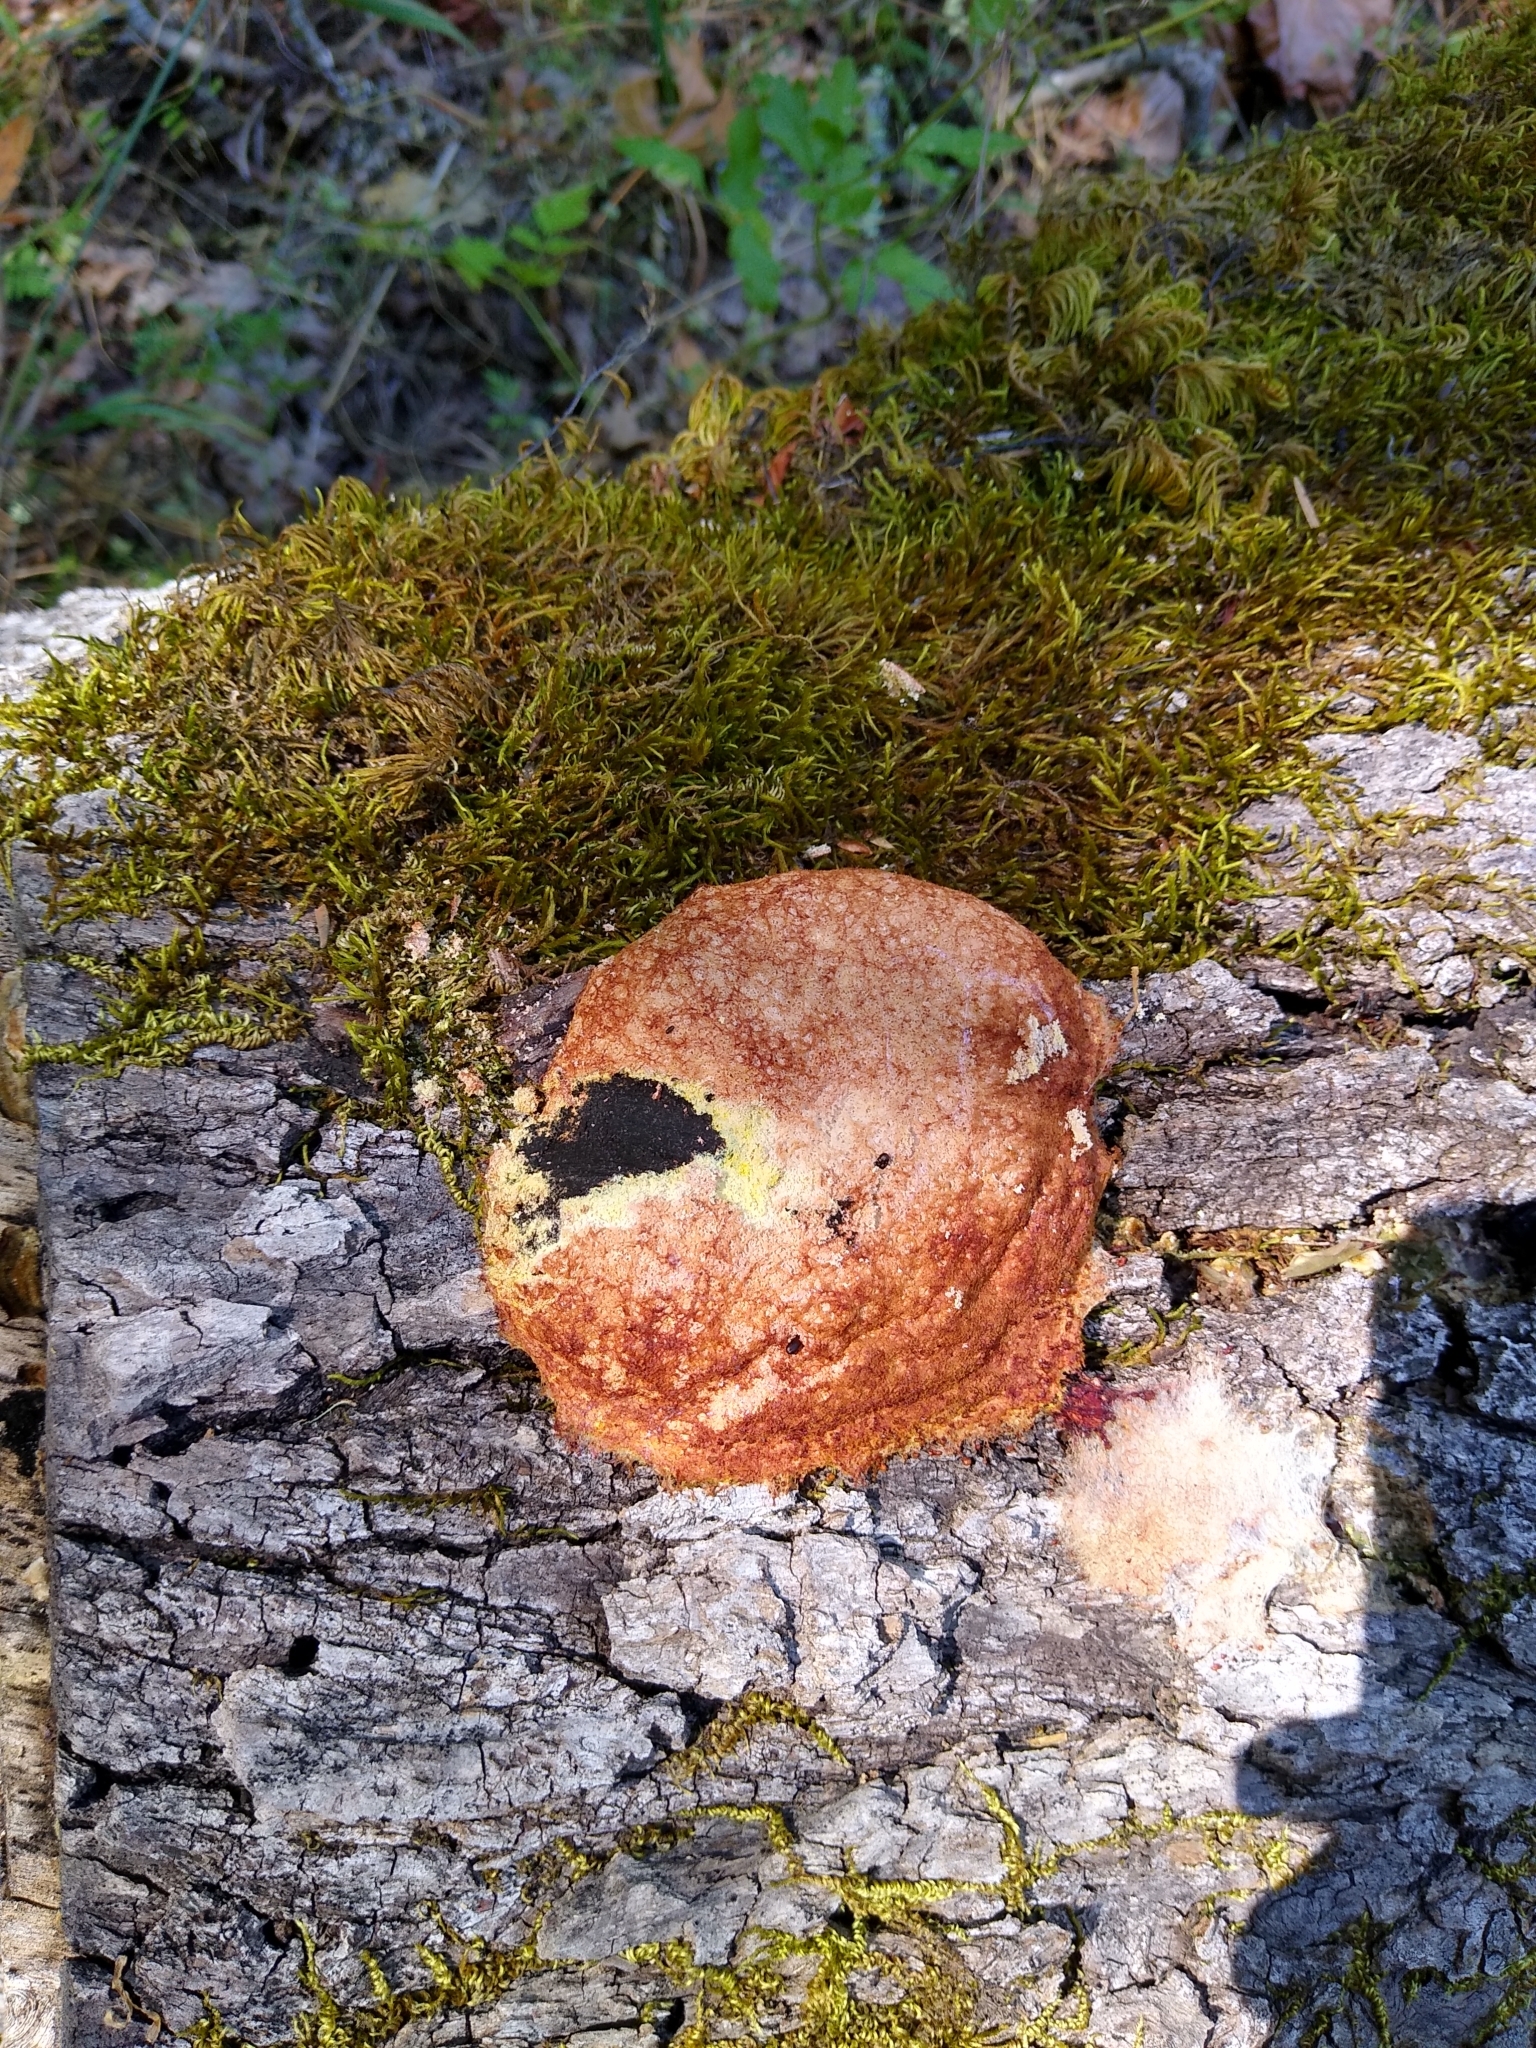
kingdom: Protozoa
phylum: Mycetozoa
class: Myxomycetes
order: Physarales
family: Physaraceae
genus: Fuligo
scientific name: Fuligo septica
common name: Dog vomit slime mold
